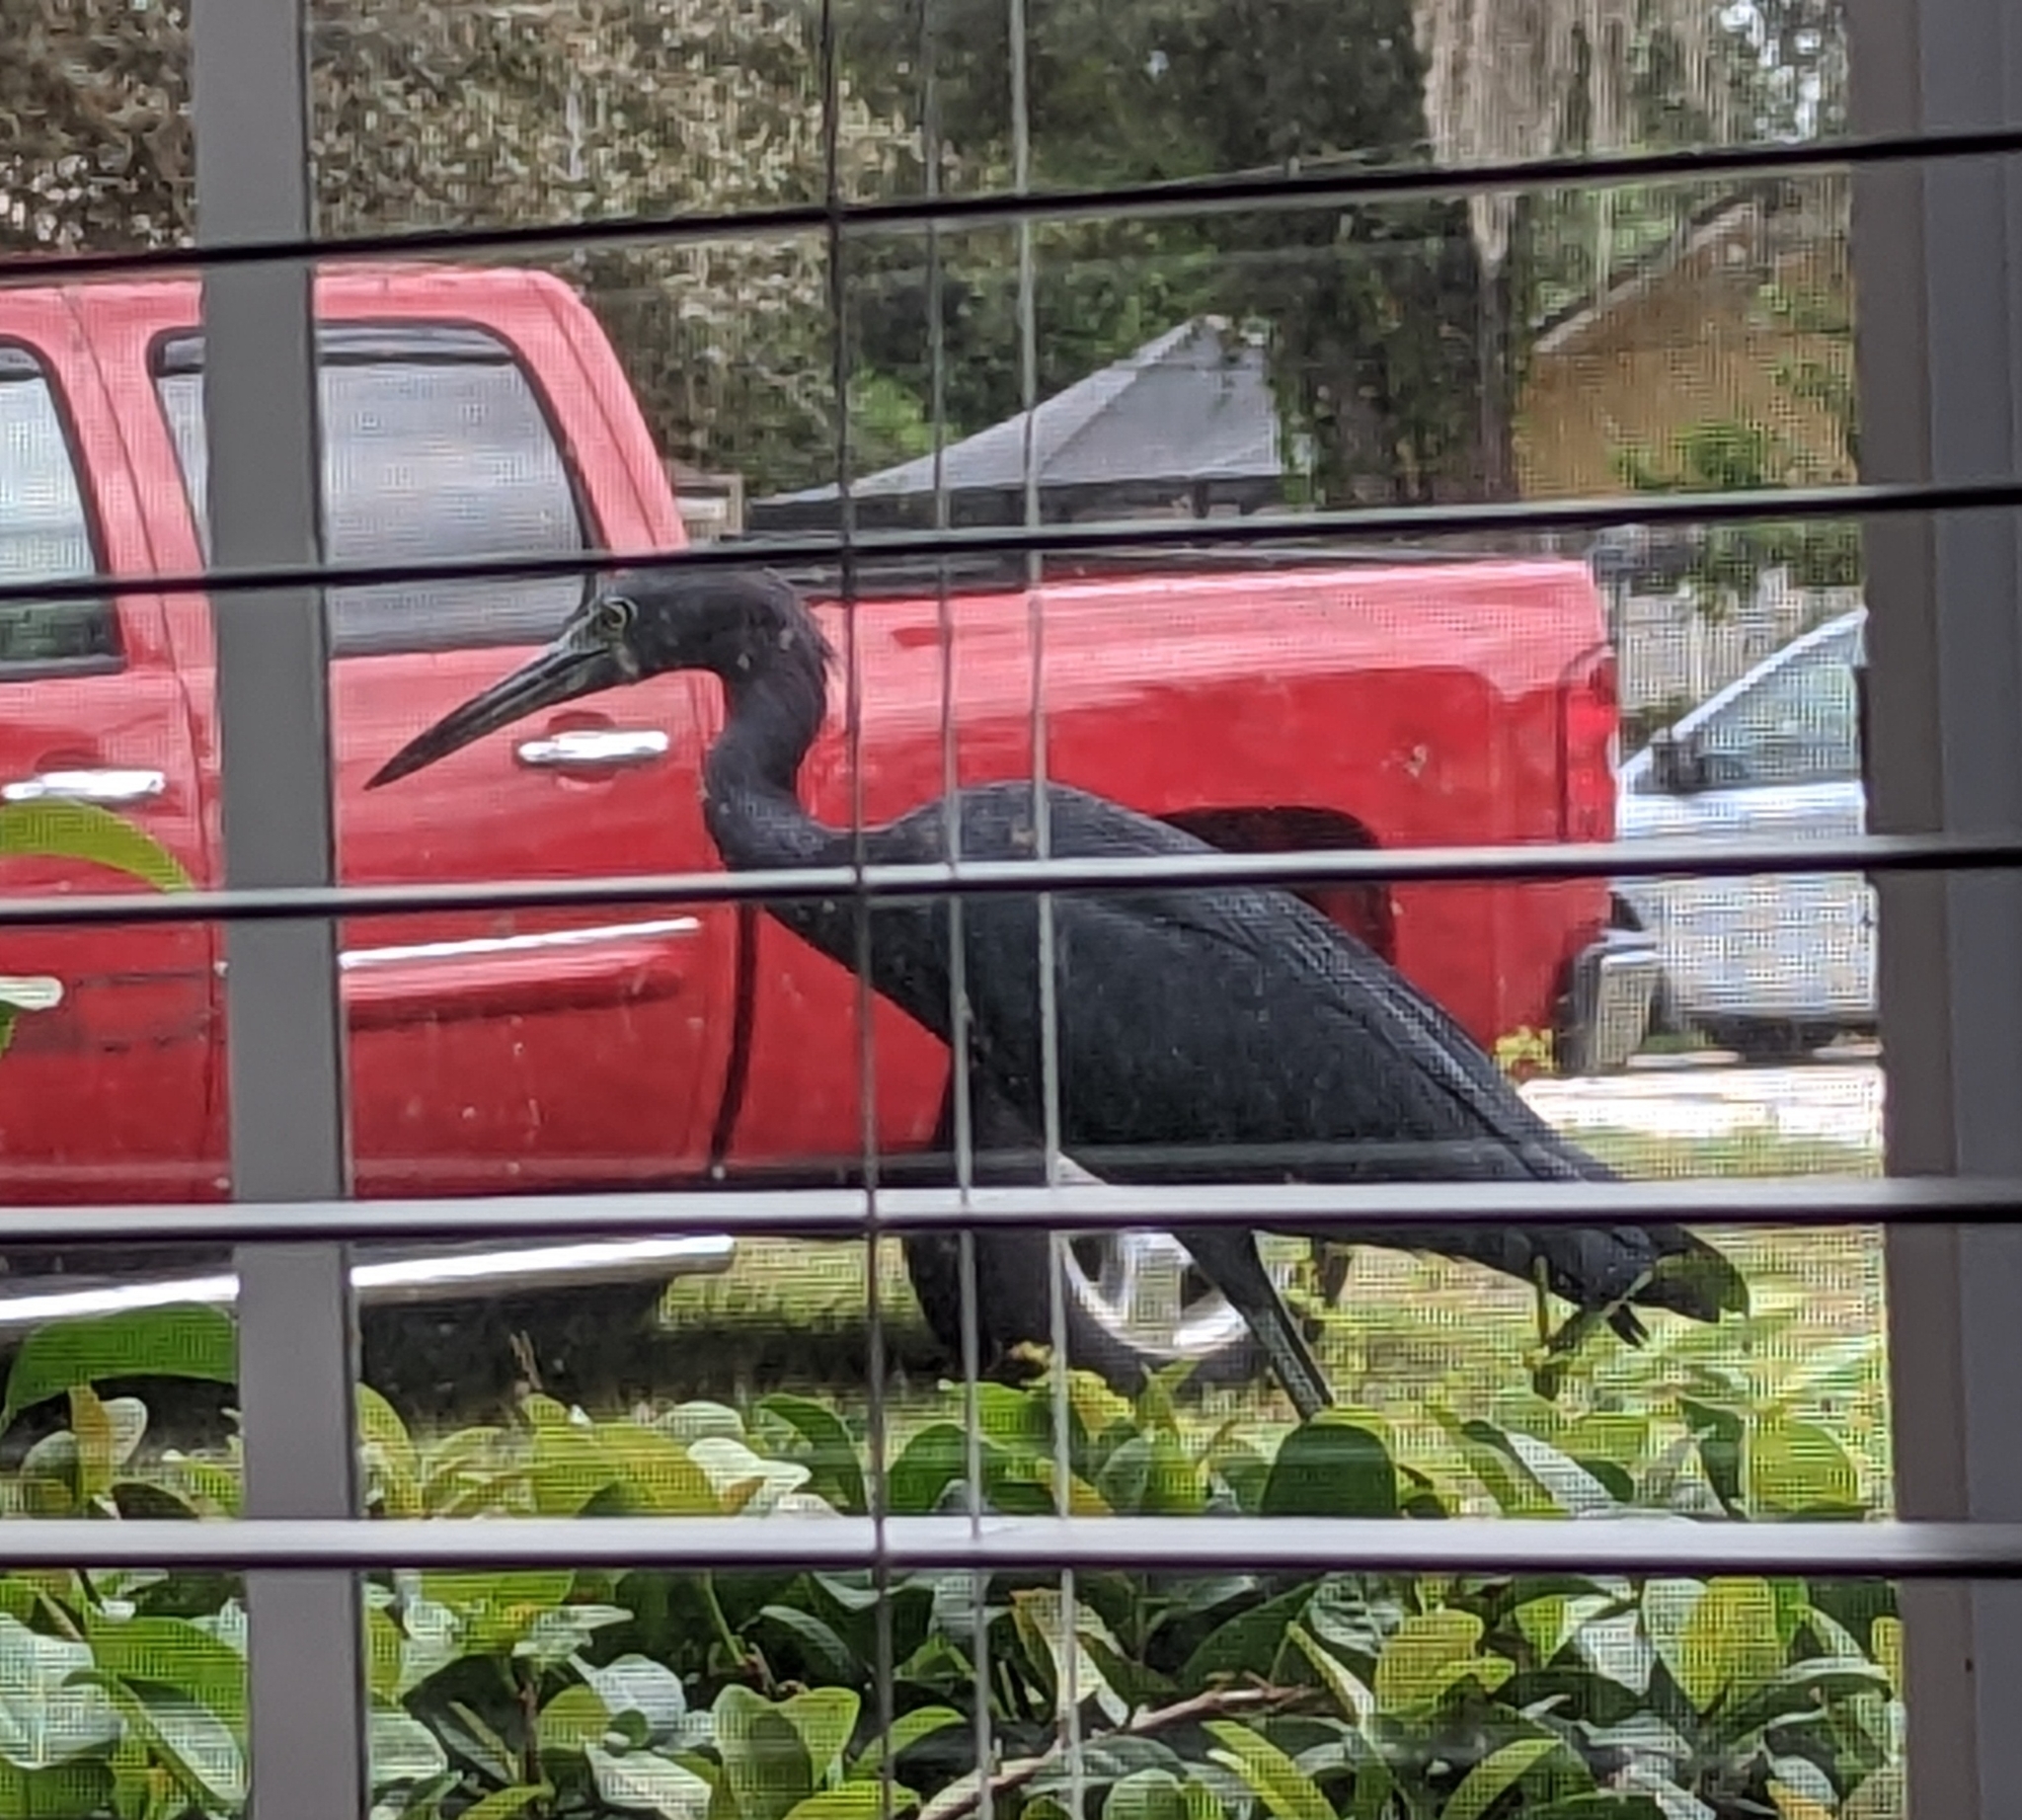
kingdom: Animalia
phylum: Chordata
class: Aves
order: Pelecaniformes
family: Ardeidae
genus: Egretta
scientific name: Egretta caerulea
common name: Little blue heron
